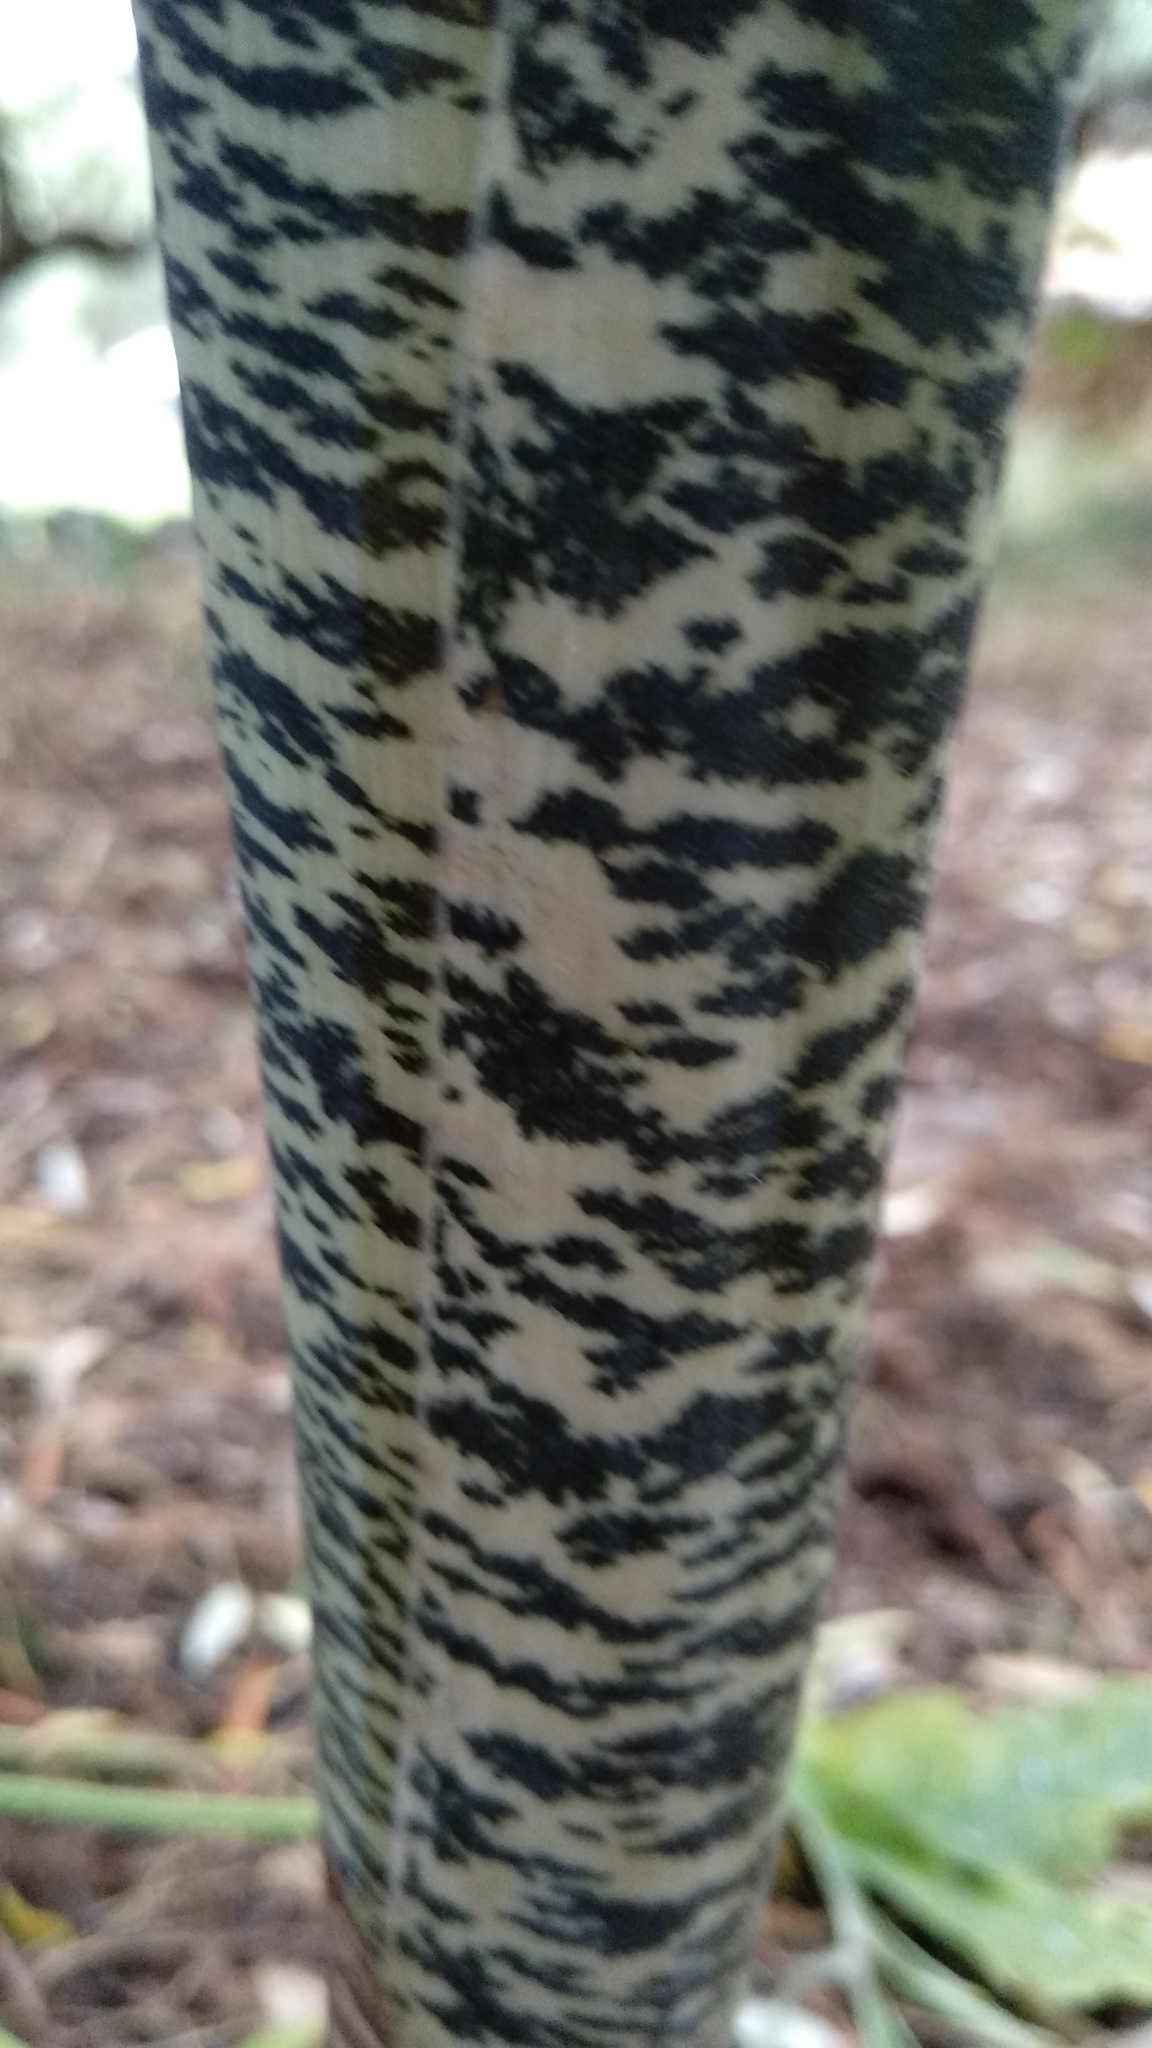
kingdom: Plantae
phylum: Tracheophyta
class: Liliopsida
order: Alismatales
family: Araceae
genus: Dracunculus
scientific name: Dracunculus vulgaris
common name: Dragon arum
